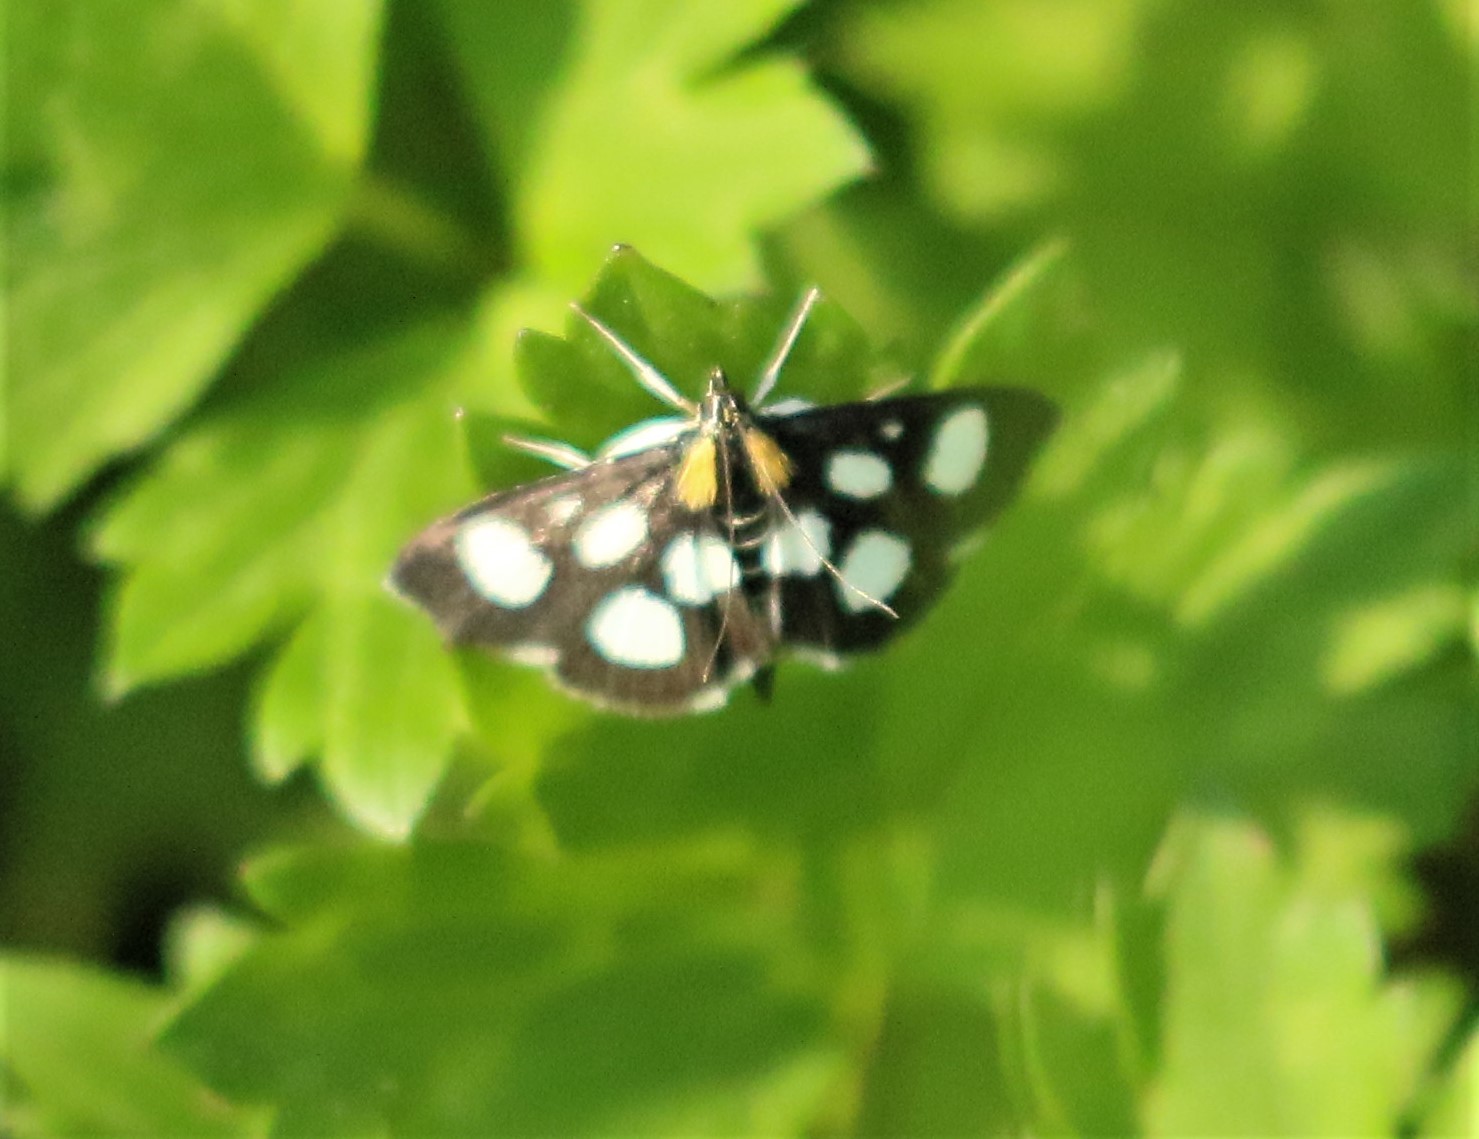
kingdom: Animalia
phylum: Arthropoda
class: Insecta
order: Lepidoptera
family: Crambidae
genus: Anania
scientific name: Anania funebris
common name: White-spotted sable moth
